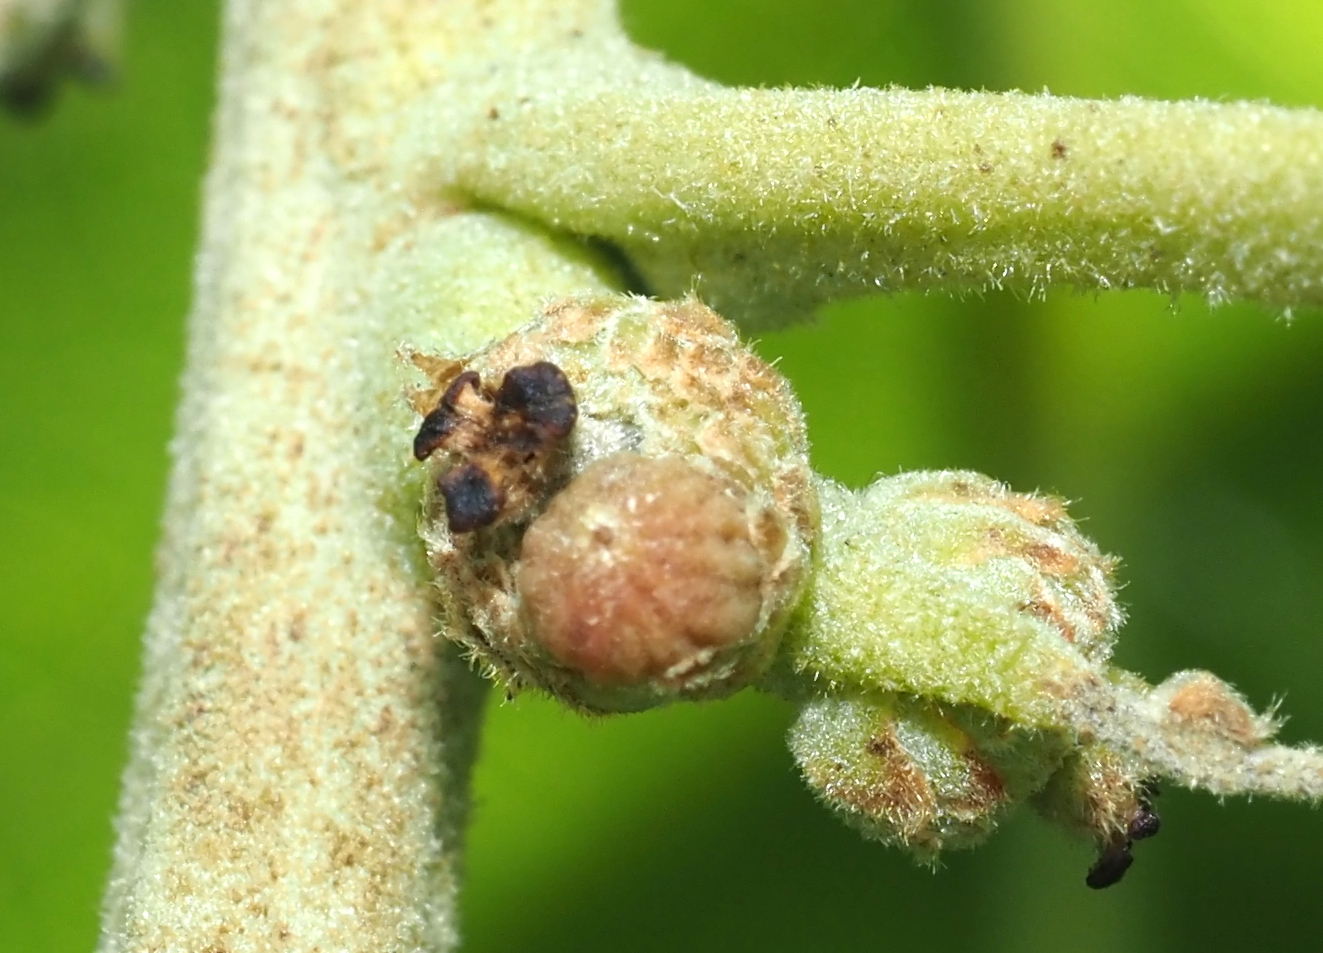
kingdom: Animalia
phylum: Arthropoda
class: Insecta
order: Hymenoptera
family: Cynipidae
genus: Callirhytis
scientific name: Callirhytis
